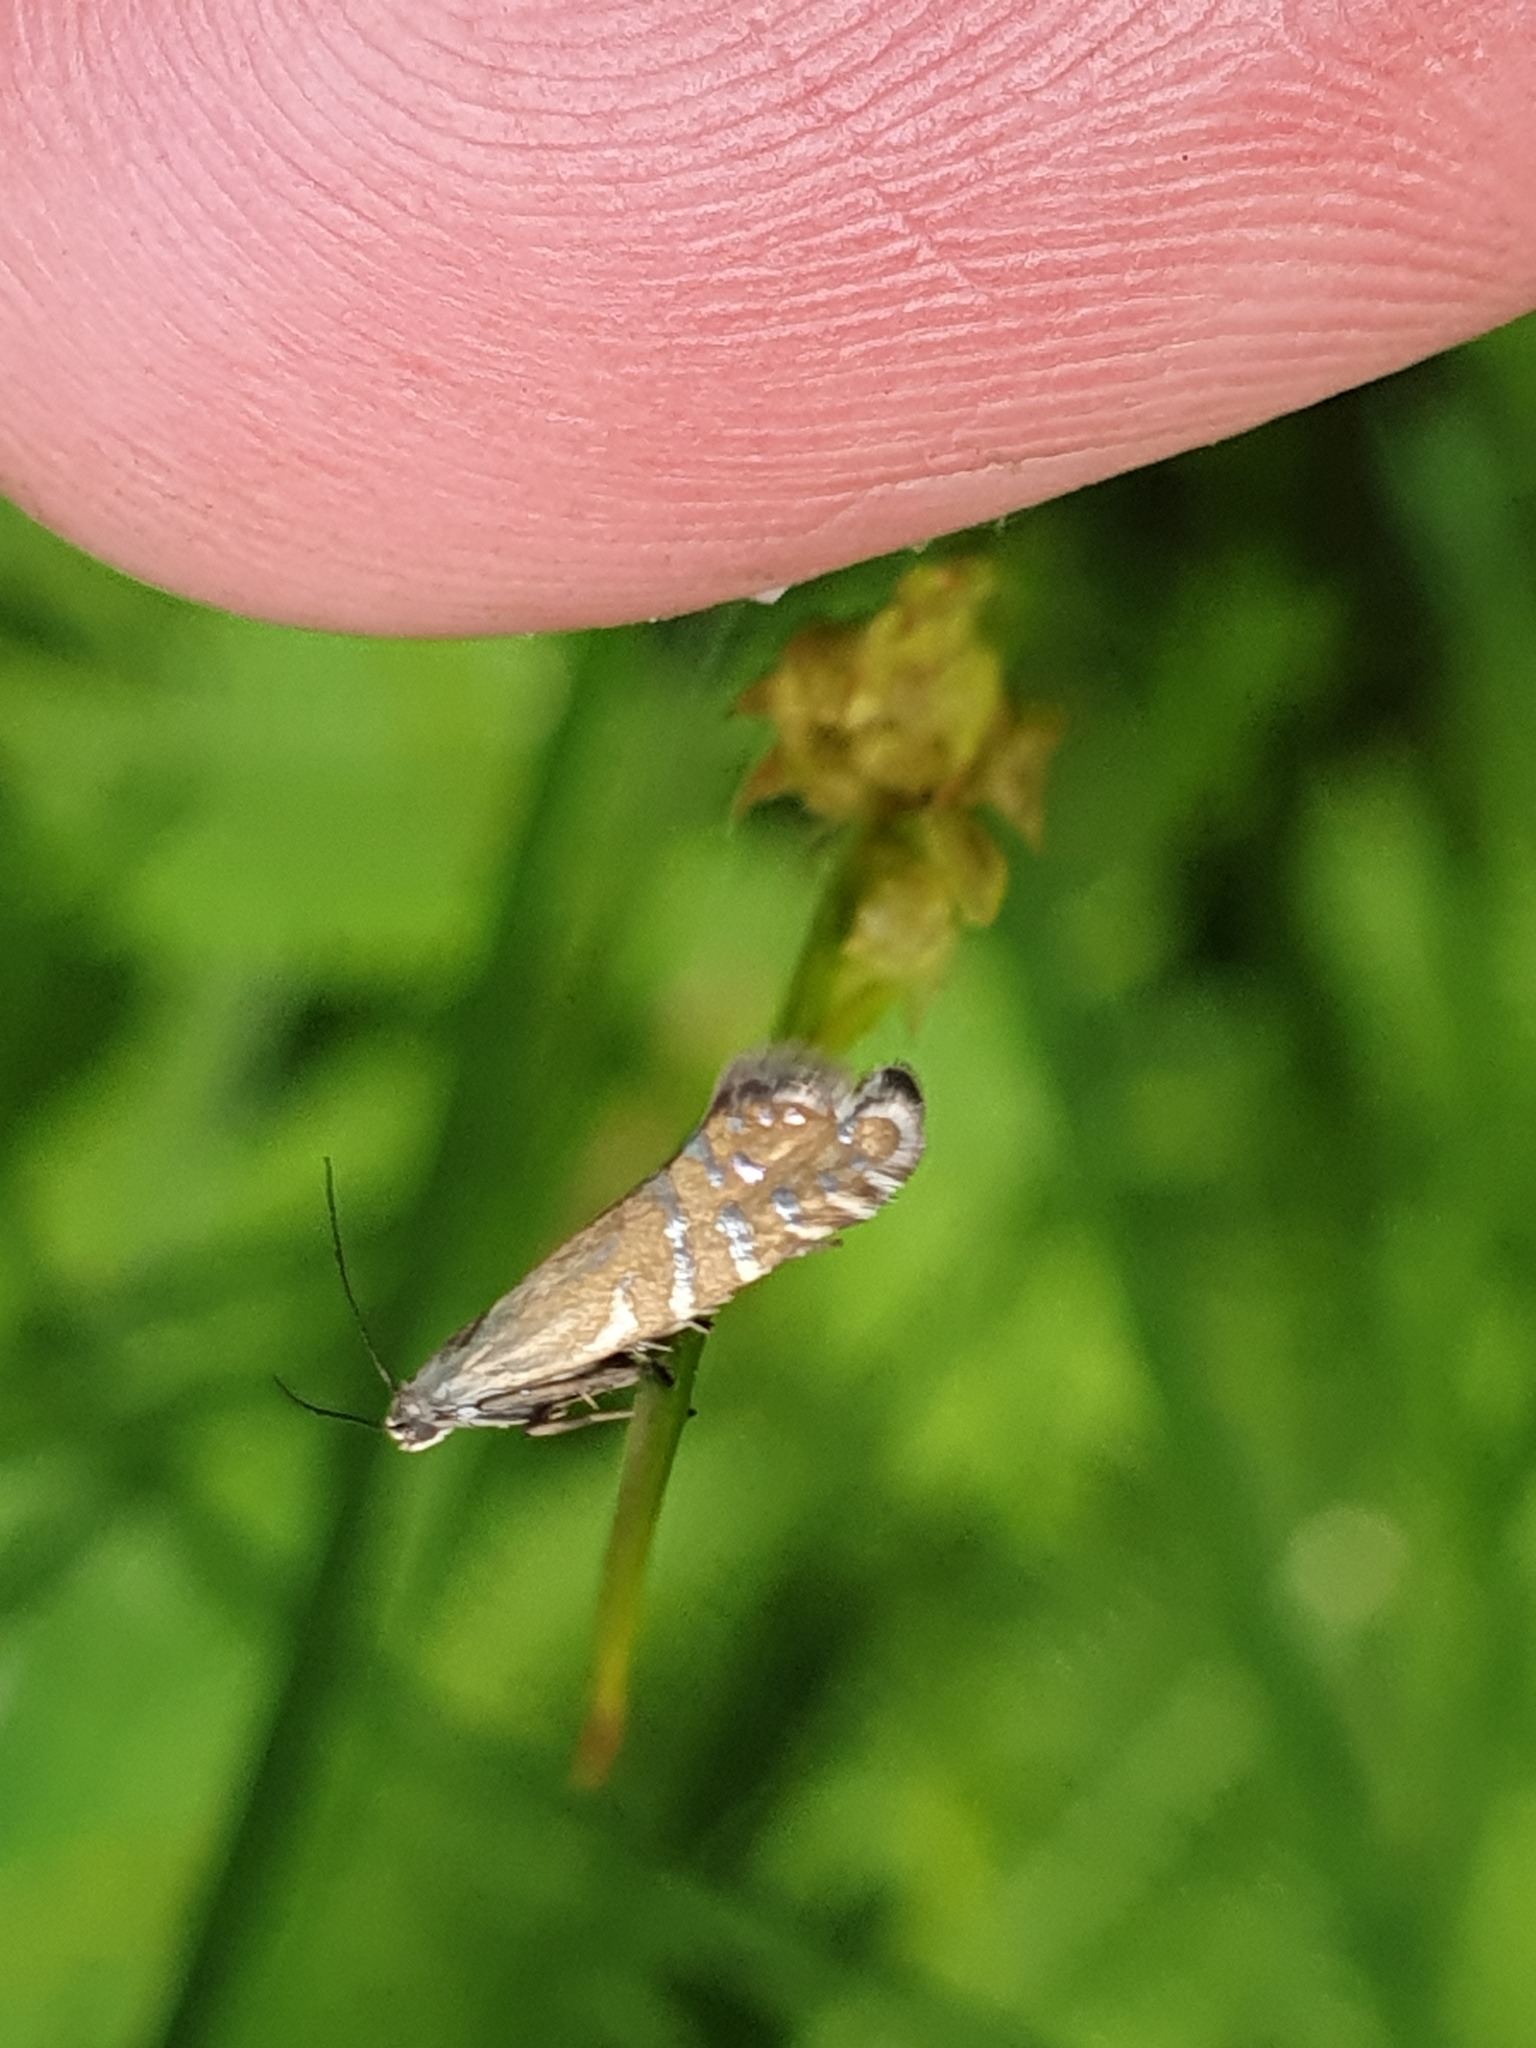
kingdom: Animalia
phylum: Arthropoda
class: Insecta
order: Lepidoptera
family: Glyphipterigidae
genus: Glyphipterix
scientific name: Glyphipterix thrasonella
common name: Speckled fanner
